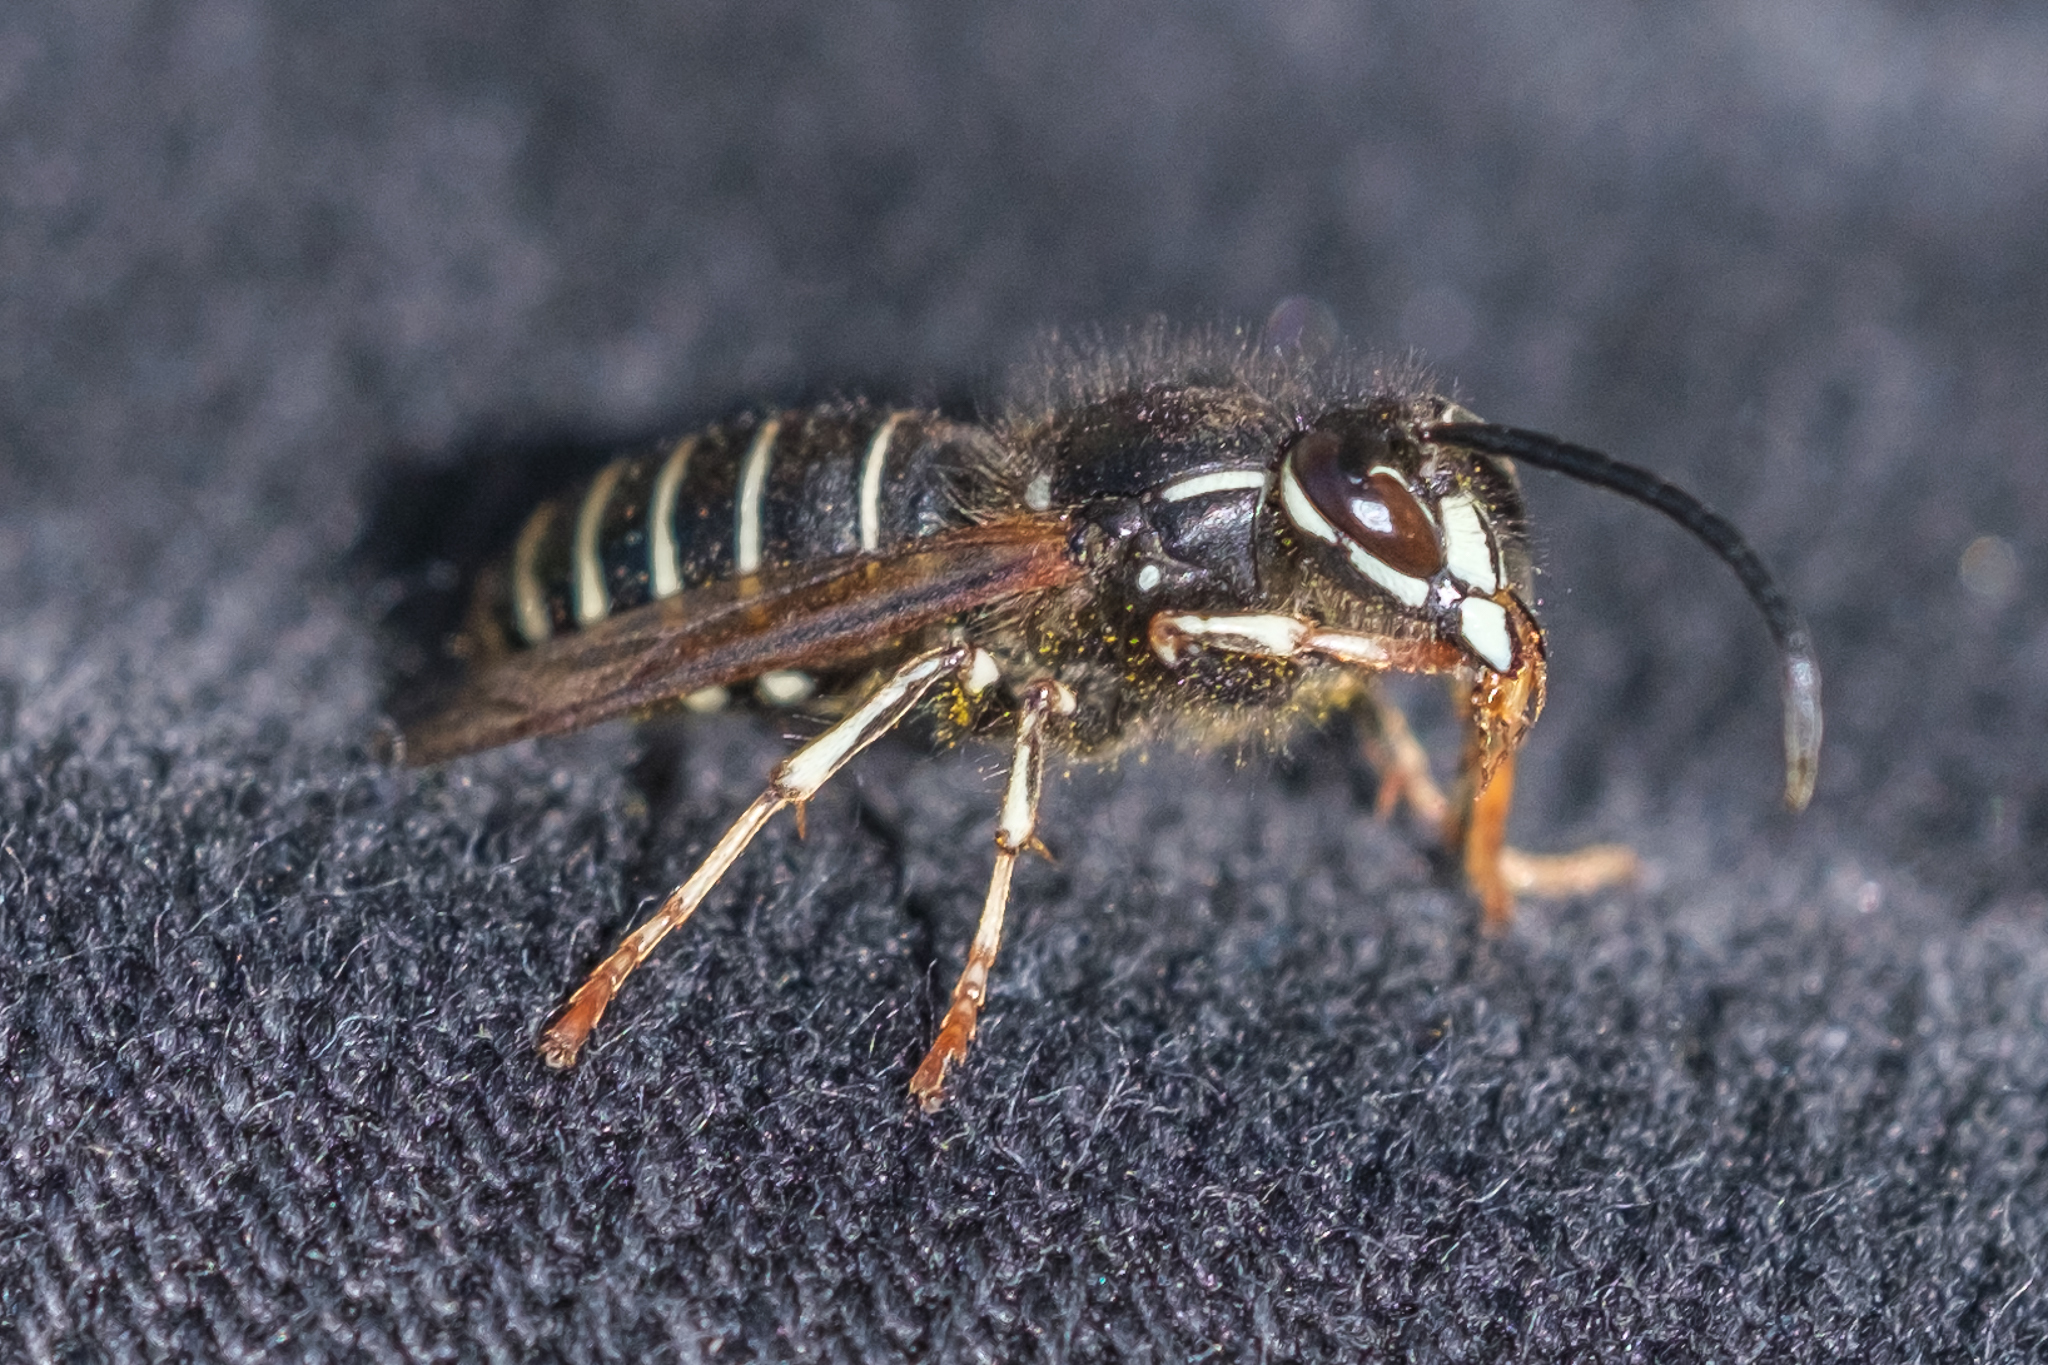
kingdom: Animalia
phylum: Arthropoda
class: Insecta
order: Hymenoptera
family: Vespidae
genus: Dolichovespula
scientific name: Dolichovespula adulterina
